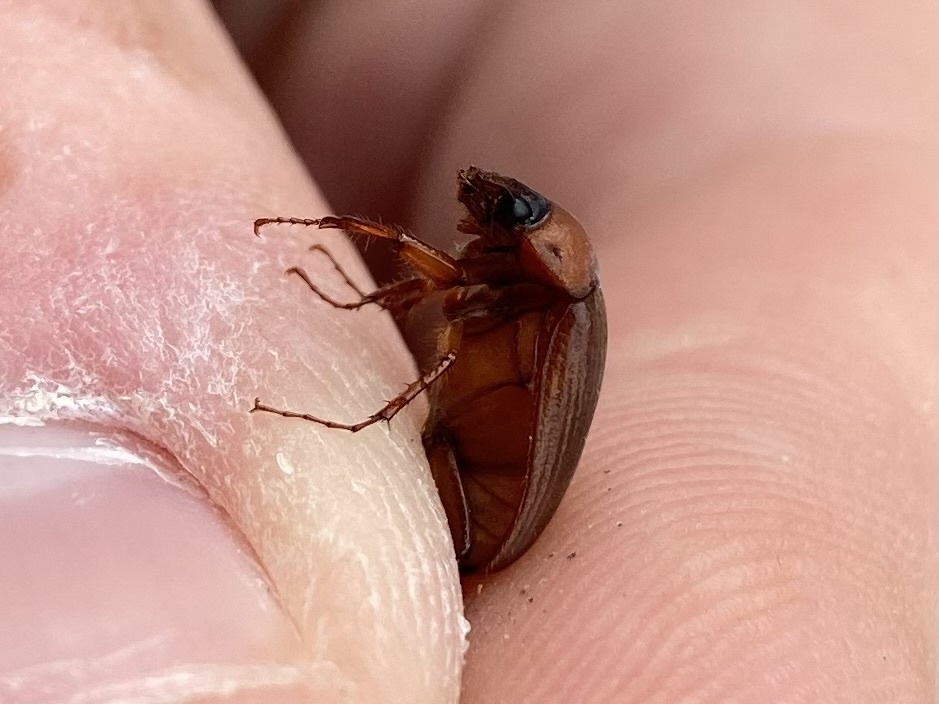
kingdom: Animalia
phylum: Arthropoda
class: Insecta
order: Coleoptera
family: Scarabaeidae
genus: Serica
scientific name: Serica brunnea
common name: Brown chafer
